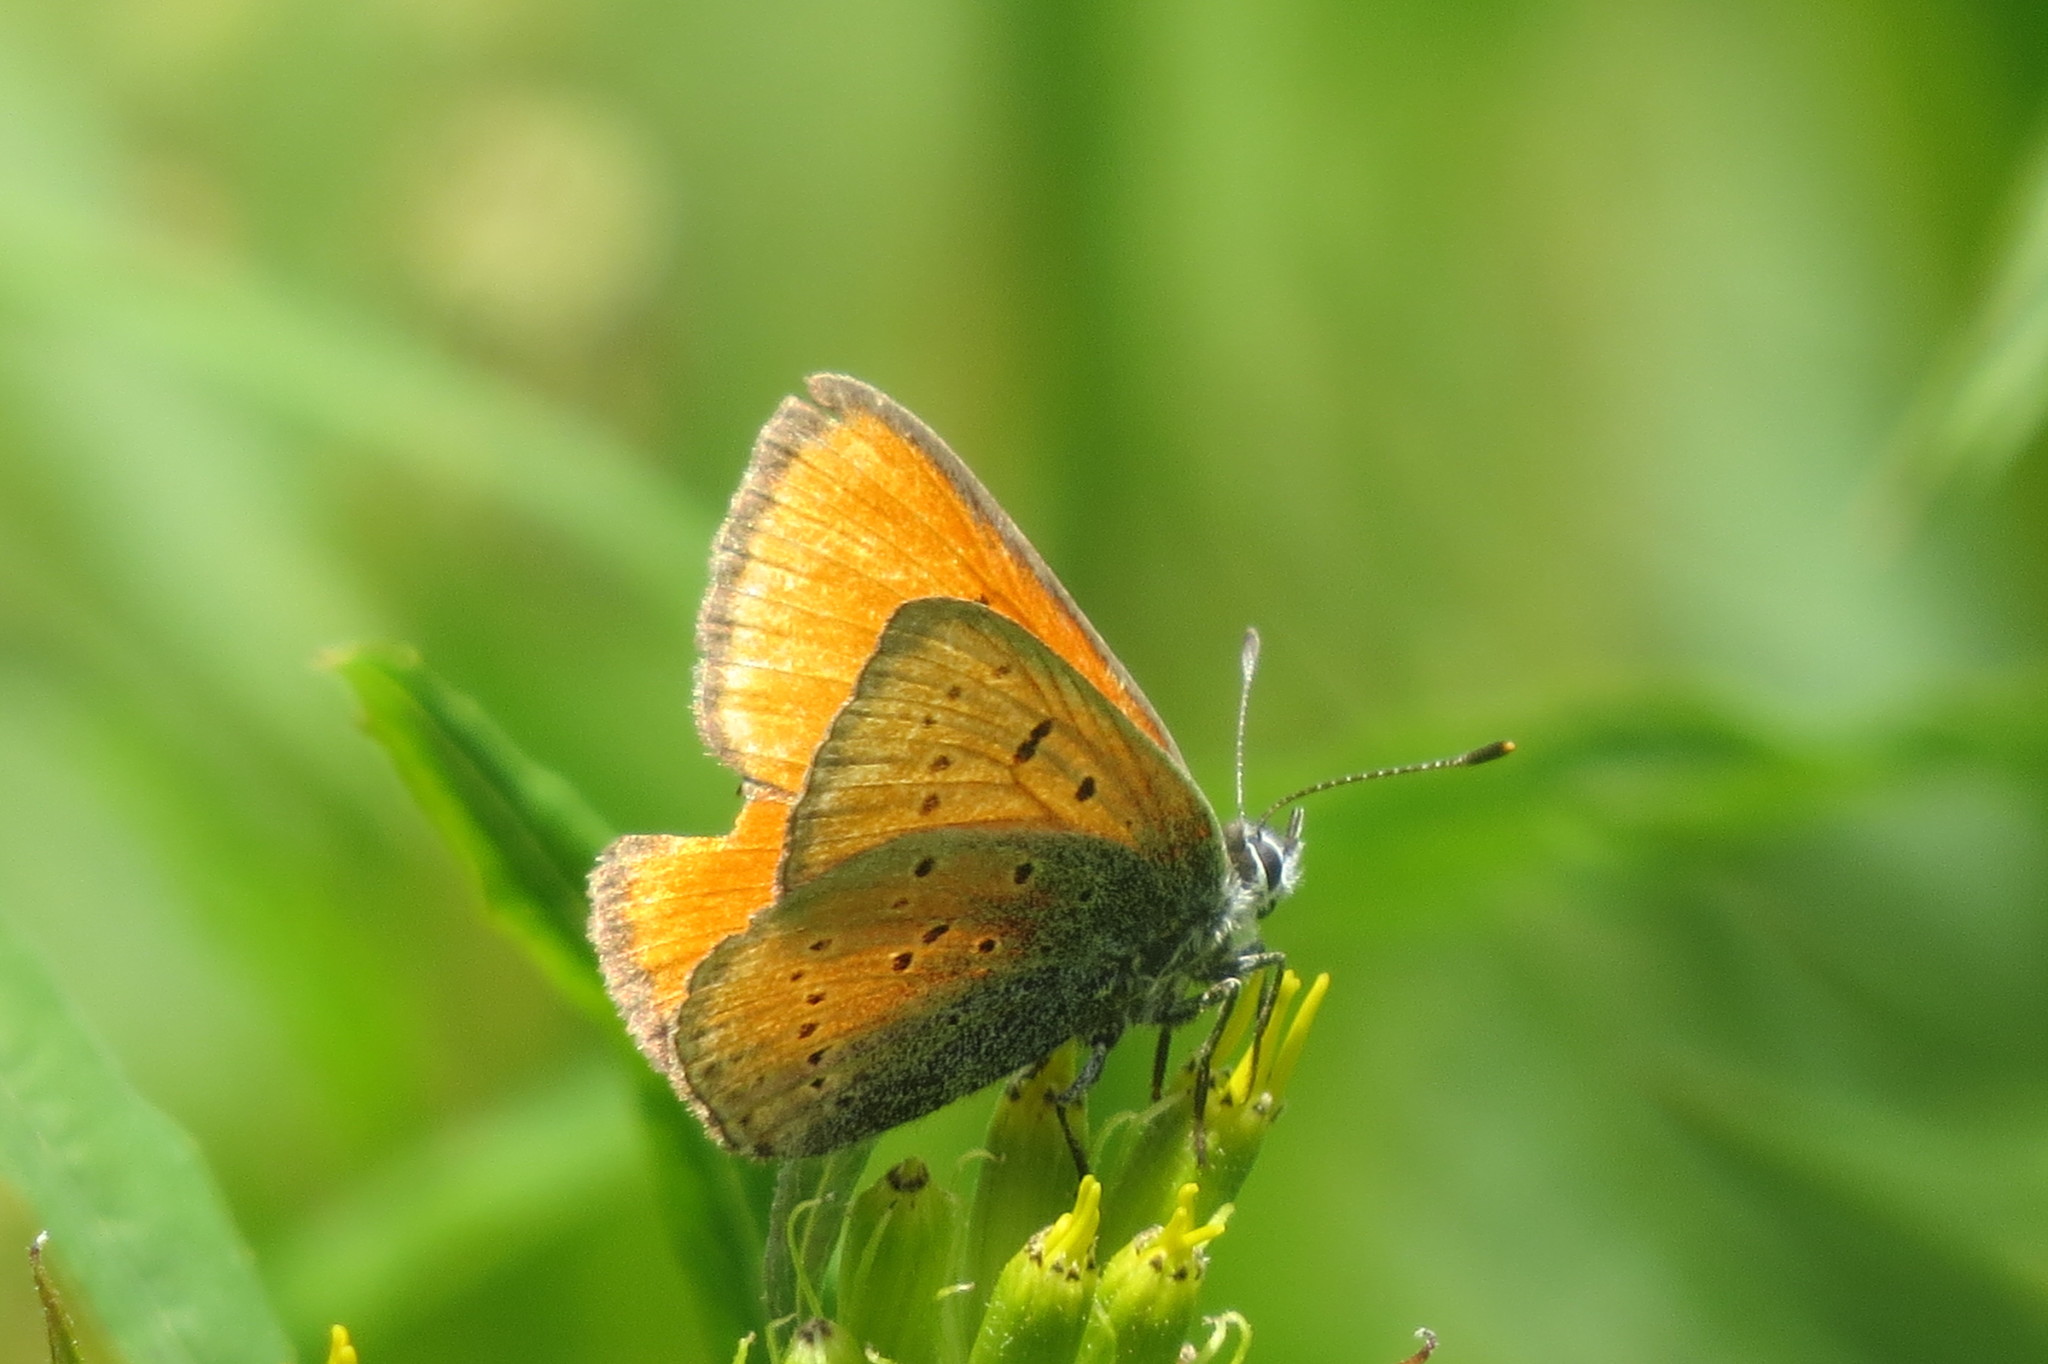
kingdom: Animalia
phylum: Arthropoda
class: Insecta
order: Lepidoptera
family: Lycaenidae
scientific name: Lycaenidae
